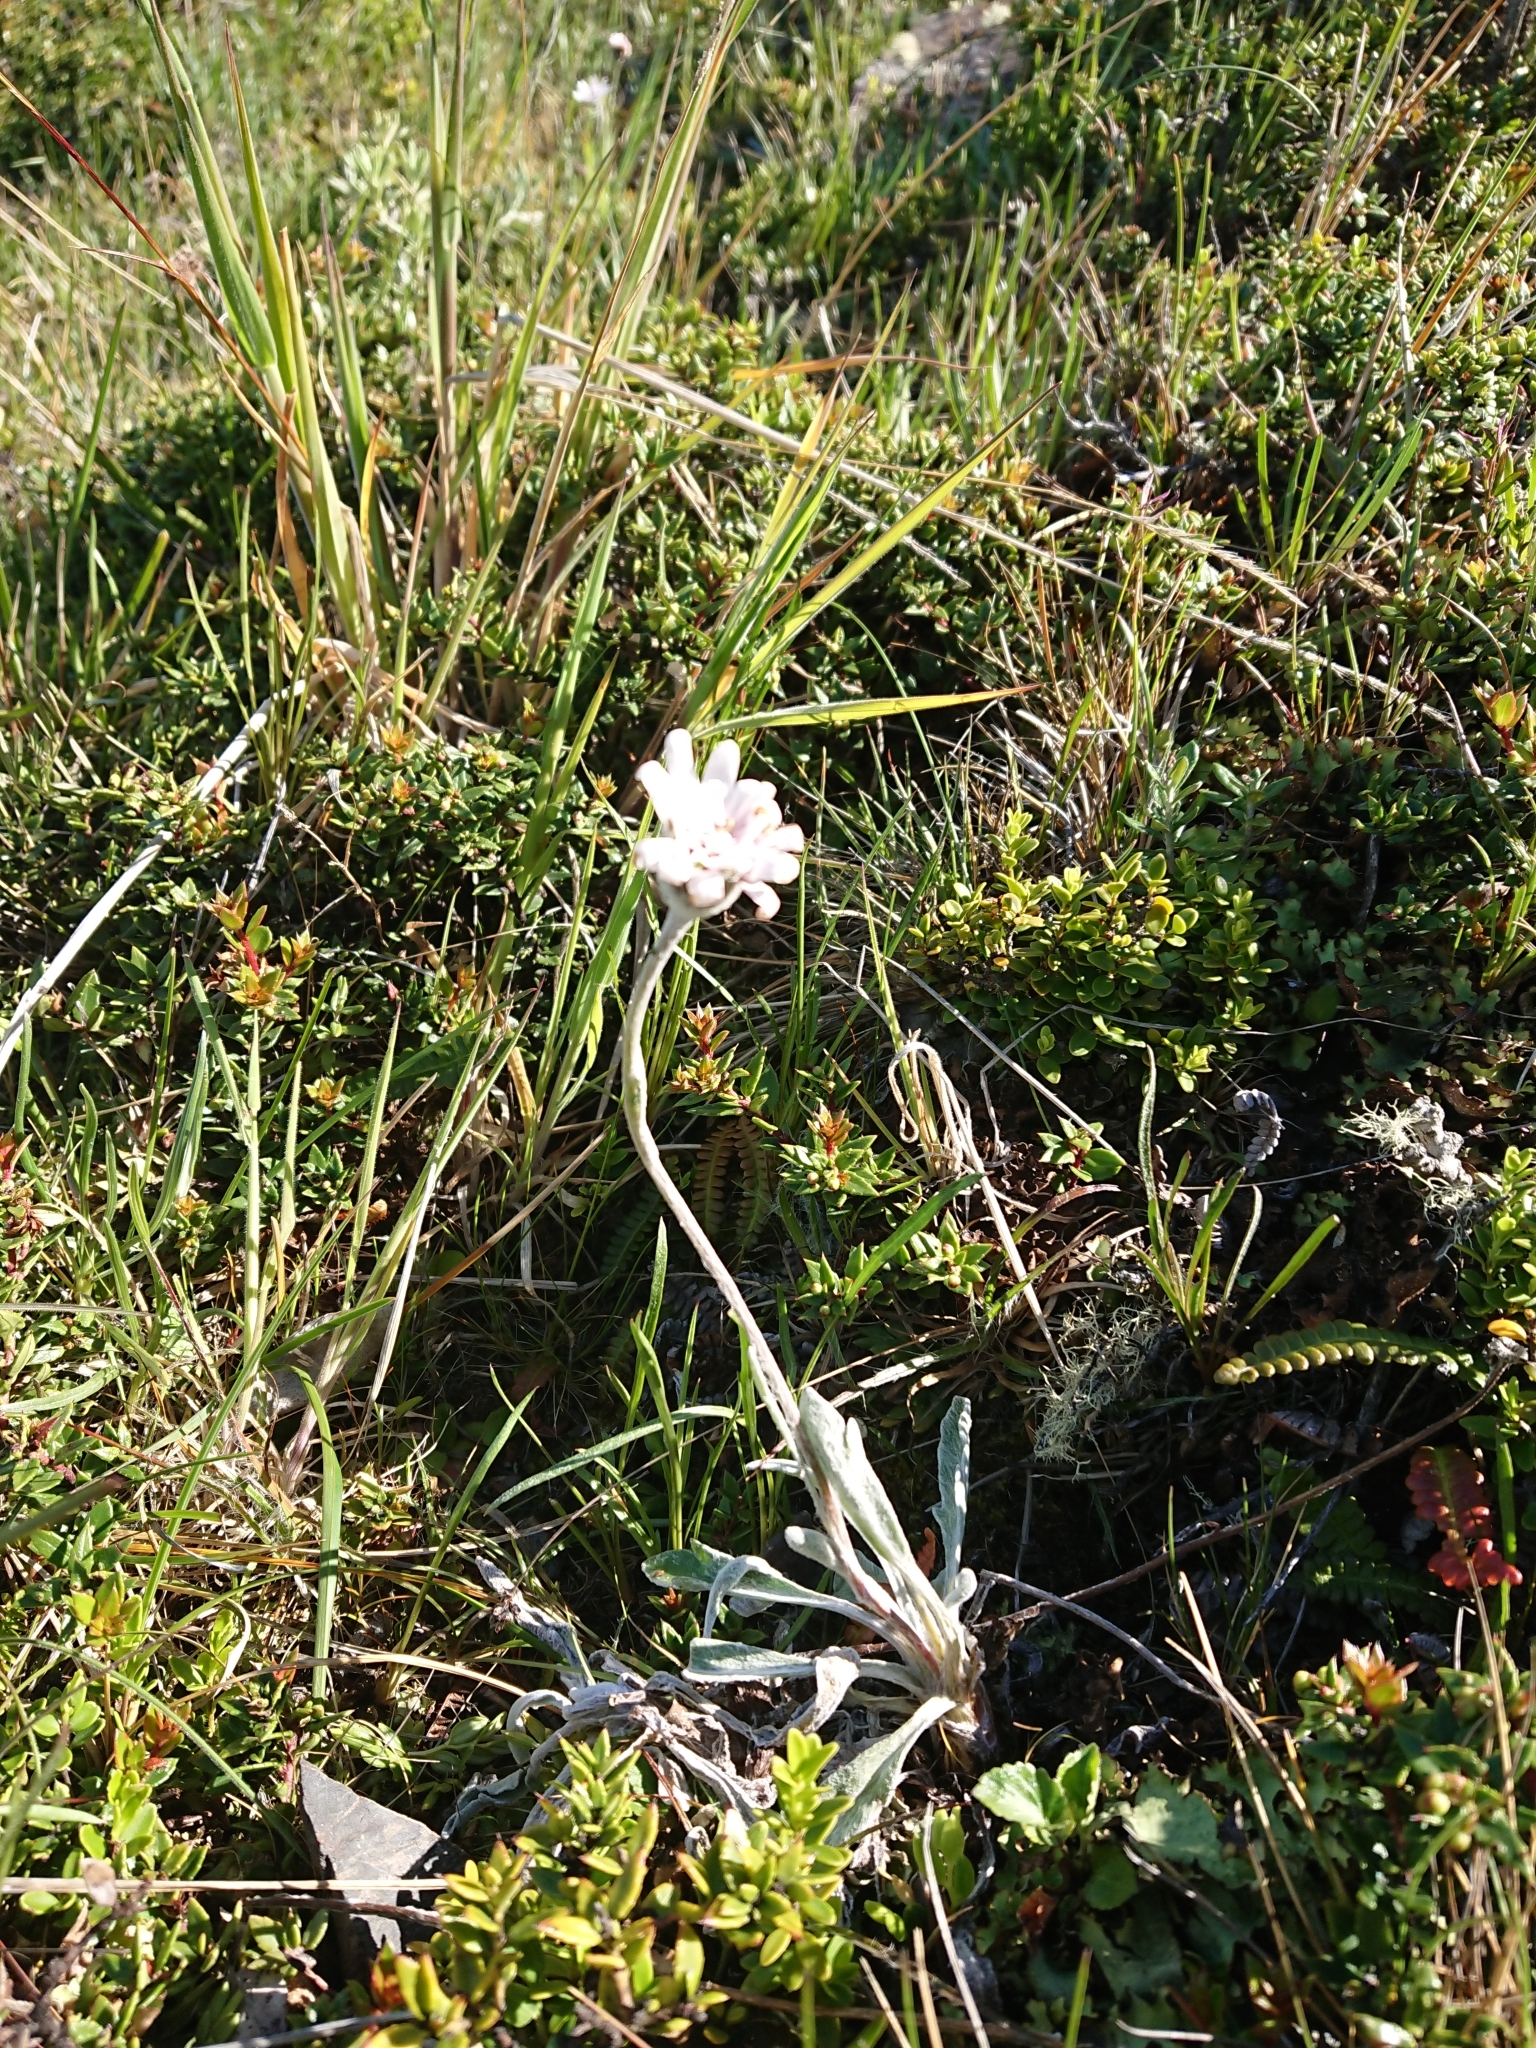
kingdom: Plantae
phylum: Tracheophyta
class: Magnoliopsida
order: Asterales
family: Asteraceae
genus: Leucheria
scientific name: Leucheria hahnii
